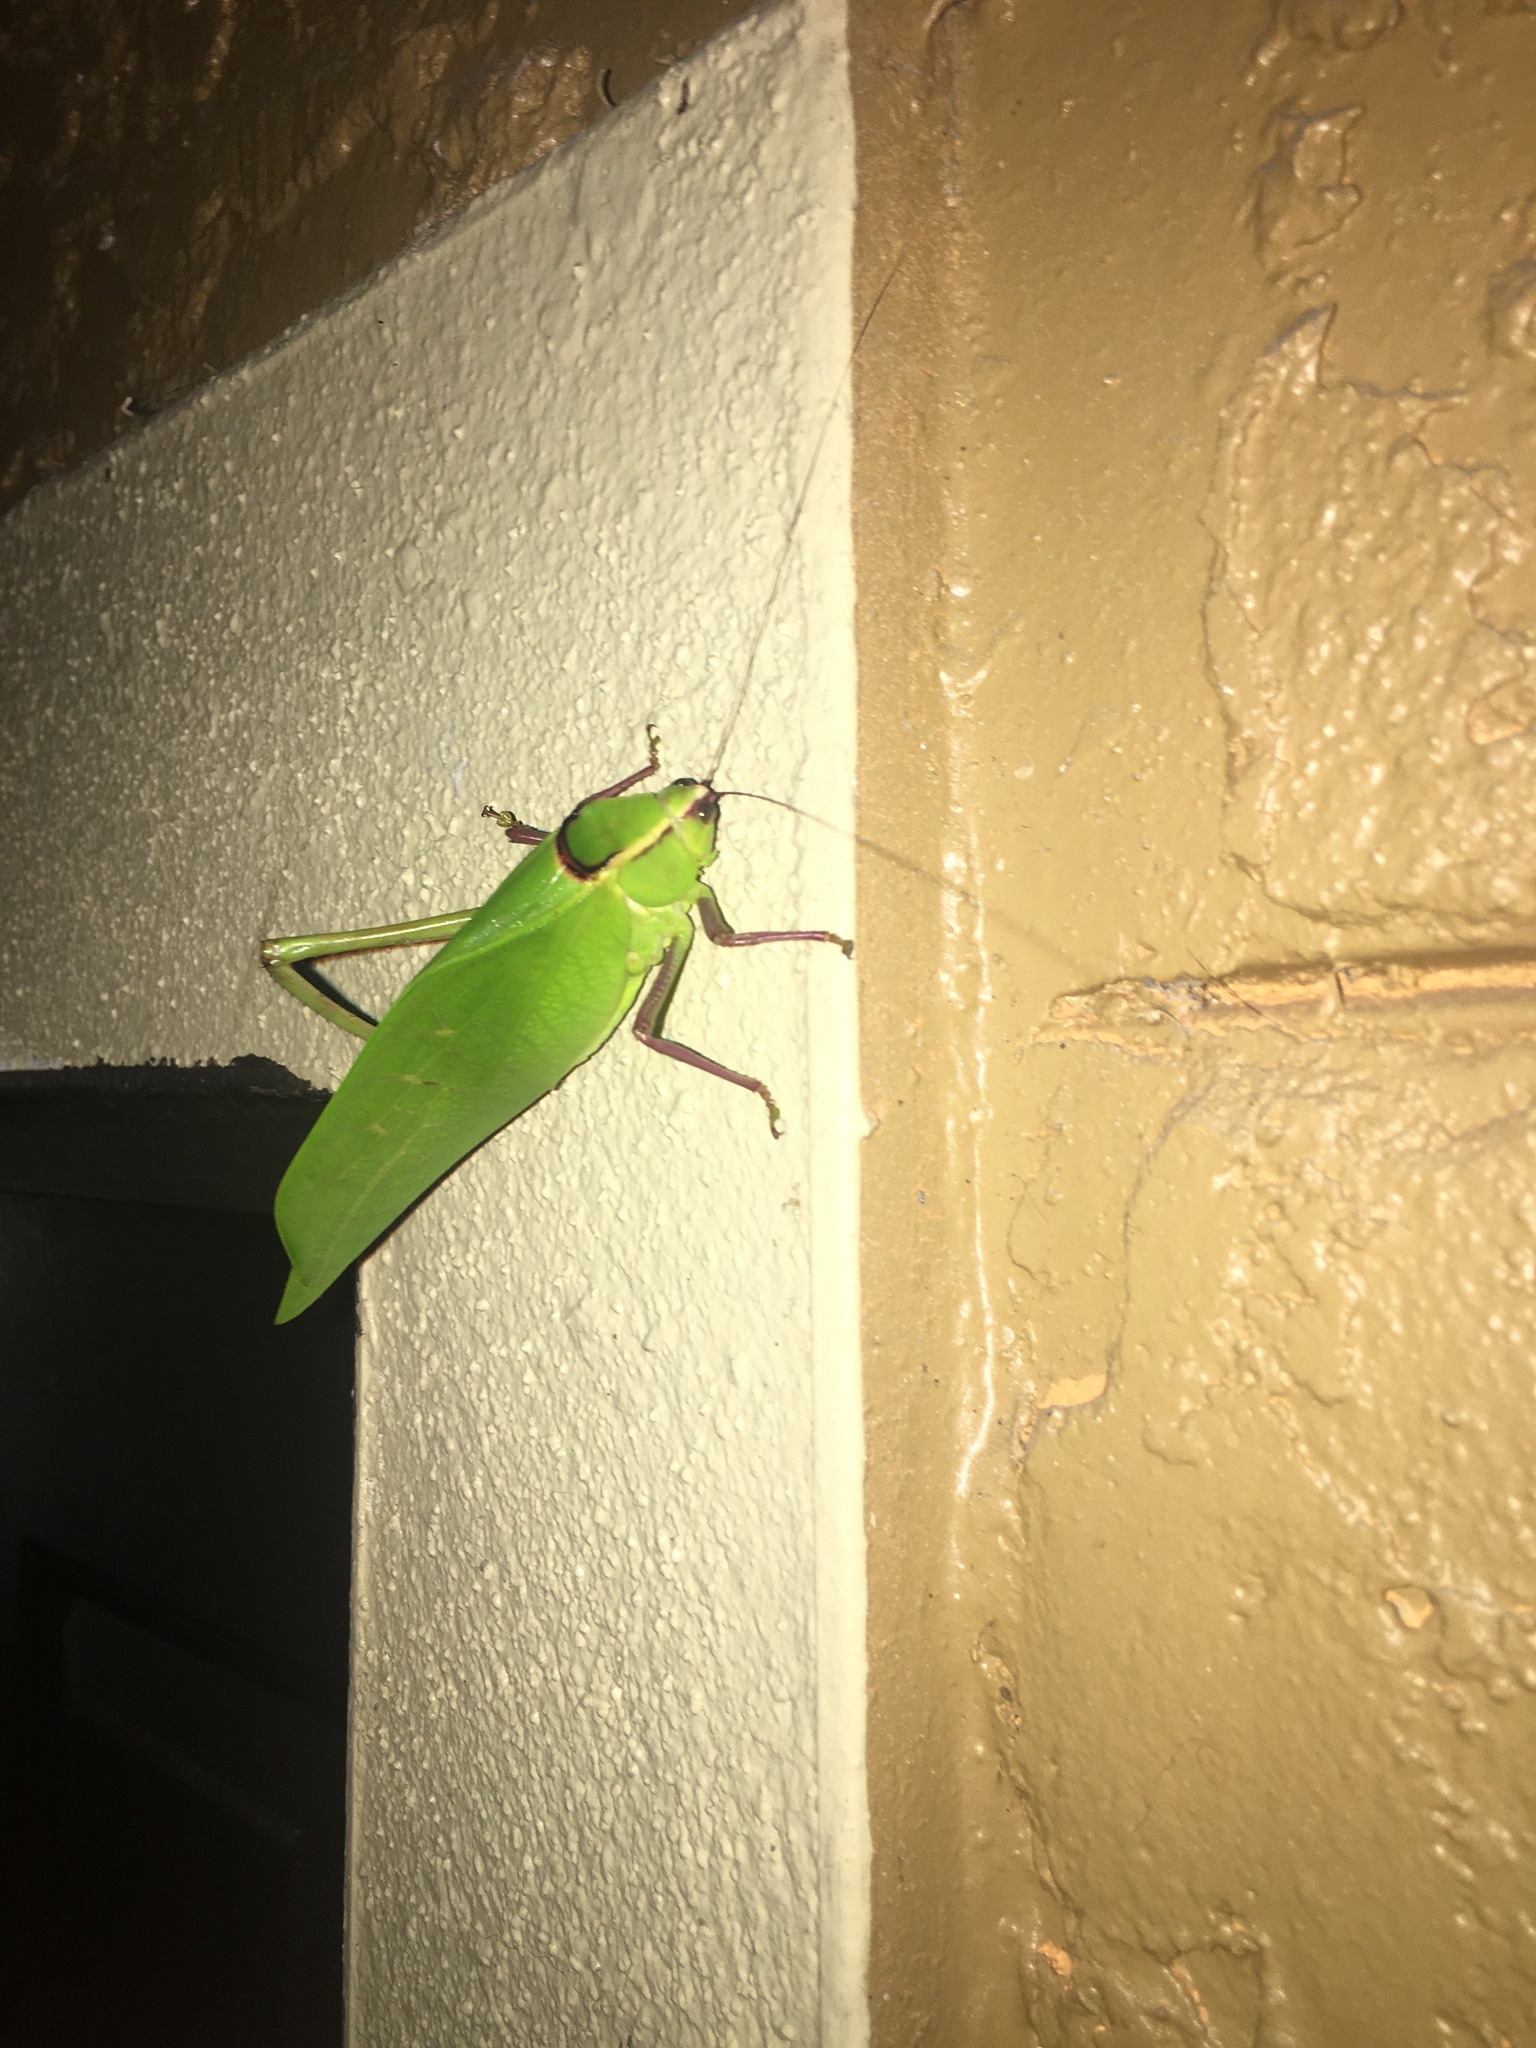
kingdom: Animalia
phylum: Arthropoda
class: Insecta
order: Orthoptera
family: Tettigoniidae
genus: Stilpnochlora
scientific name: Stilpnochlora couloniana
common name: Giant katydid
